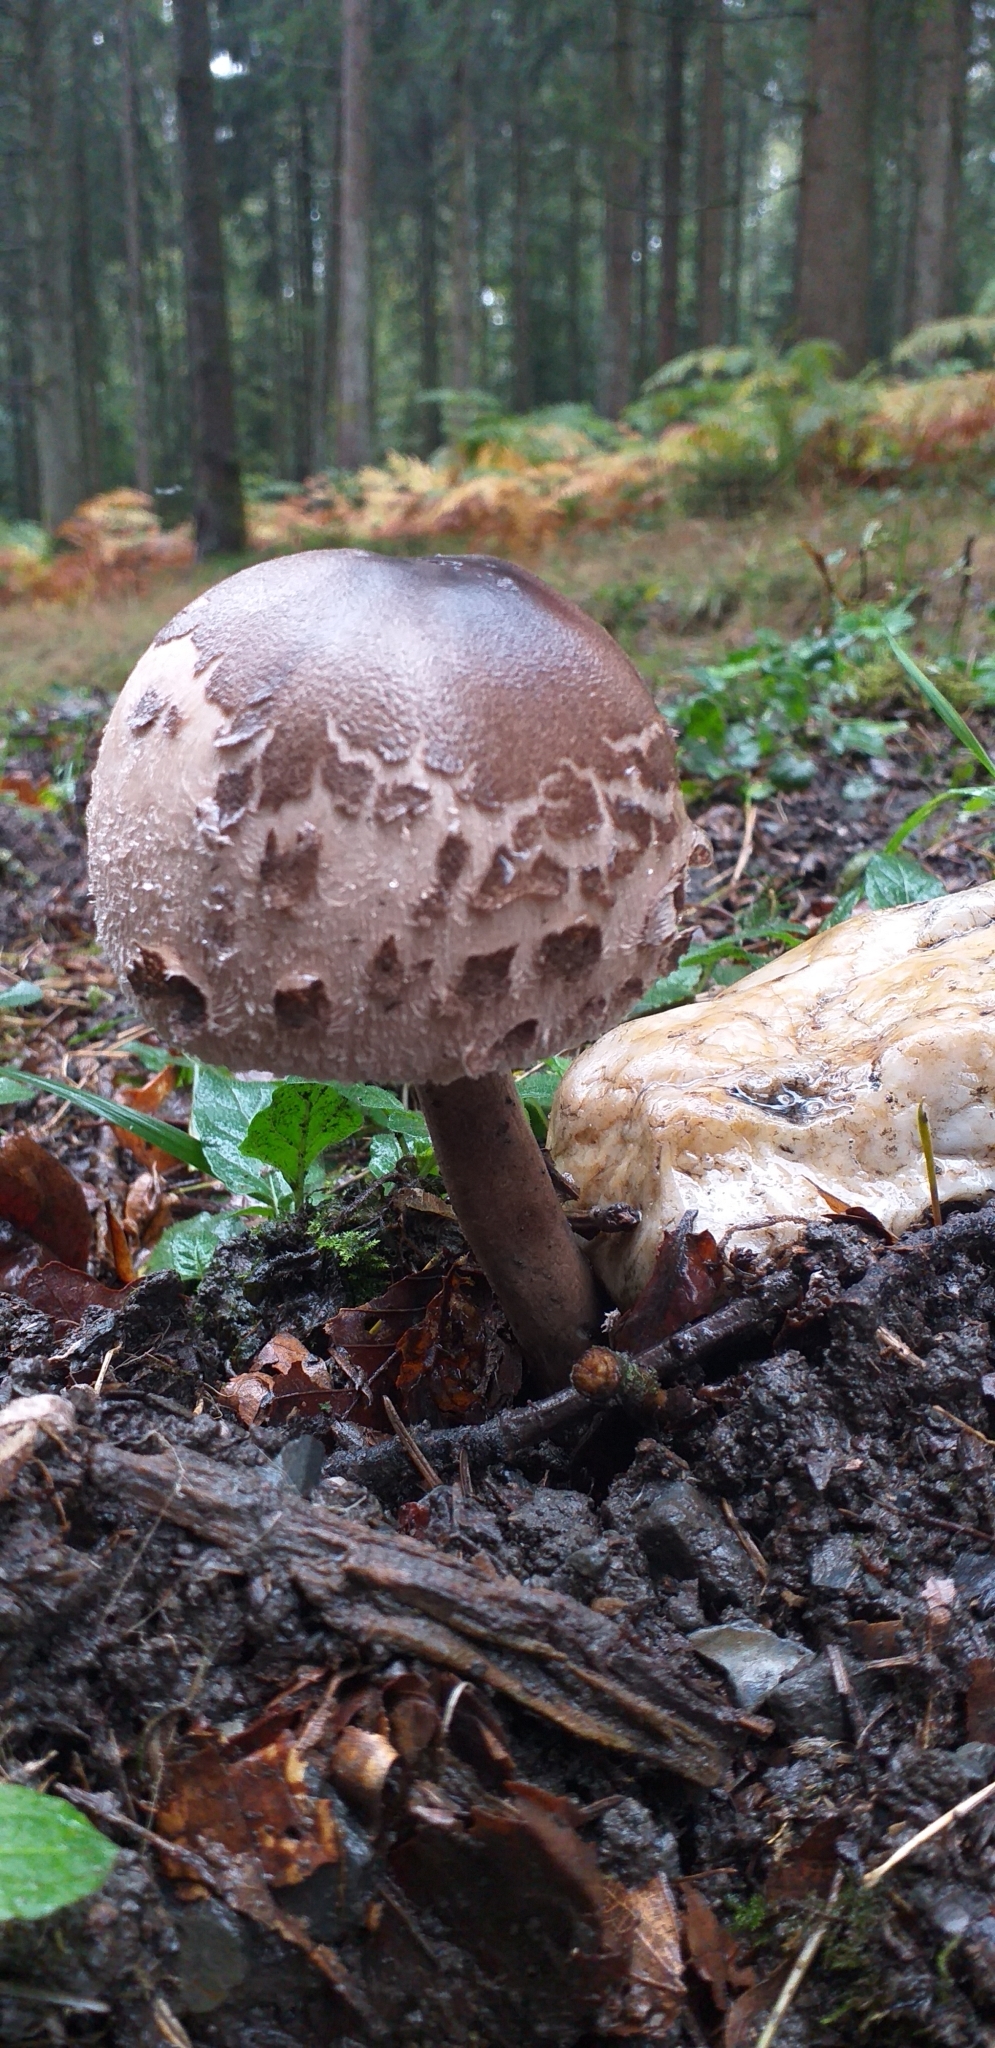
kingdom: Fungi
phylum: Basidiomycota
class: Agaricomycetes
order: Agaricales
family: Agaricaceae
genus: Macrolepiota
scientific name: Macrolepiota procera
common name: Parasol
